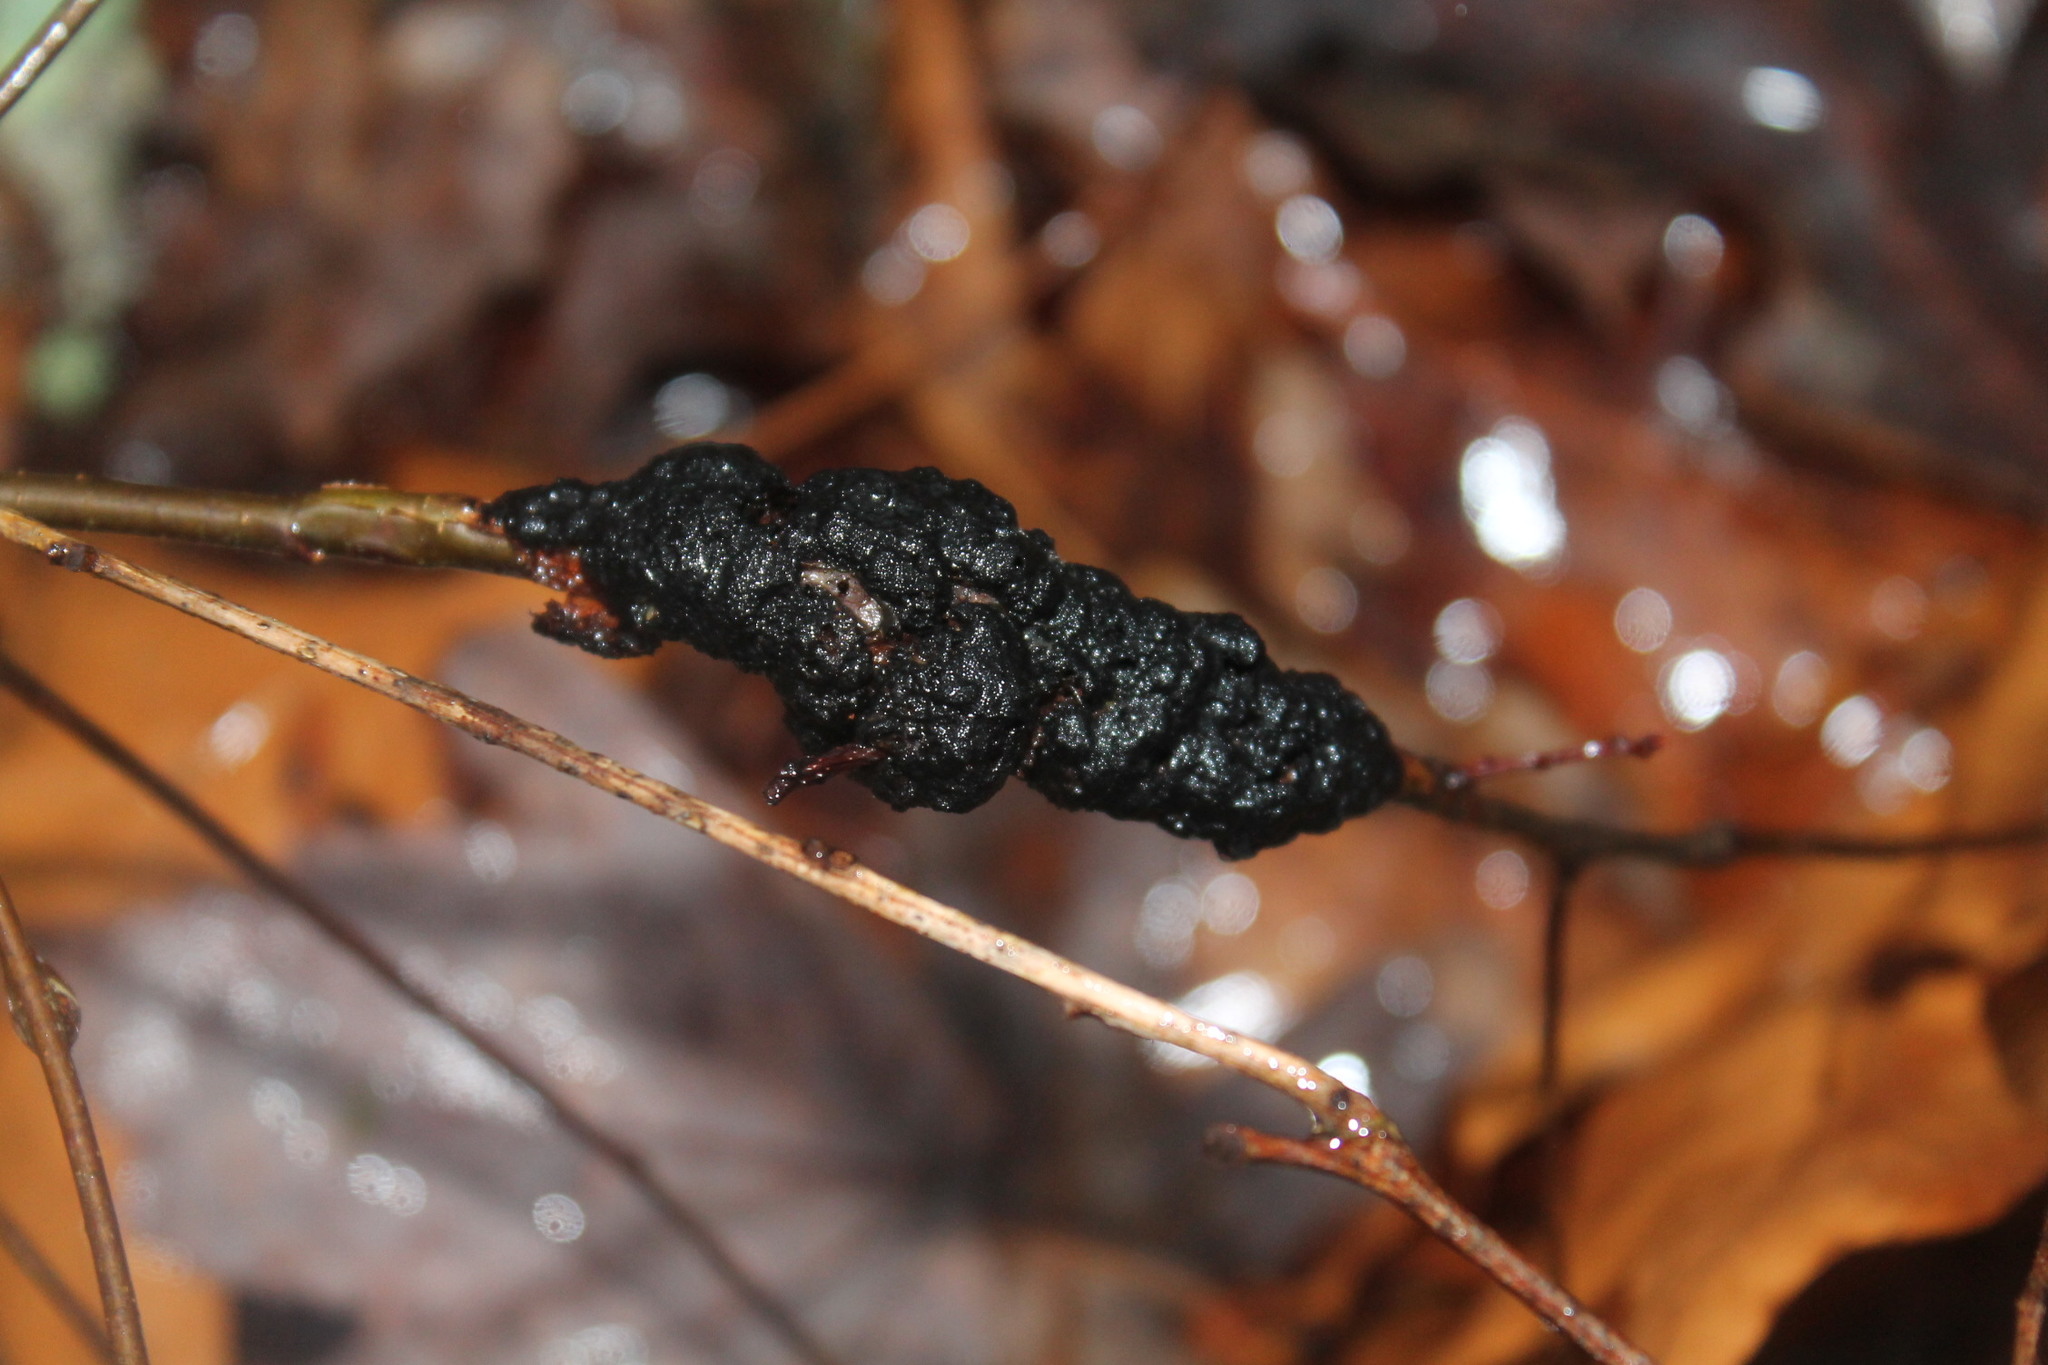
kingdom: Fungi
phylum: Ascomycota
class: Dothideomycetes
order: Venturiales
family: Venturiaceae
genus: Apiosporina
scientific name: Apiosporina morbosa
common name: Black knot
